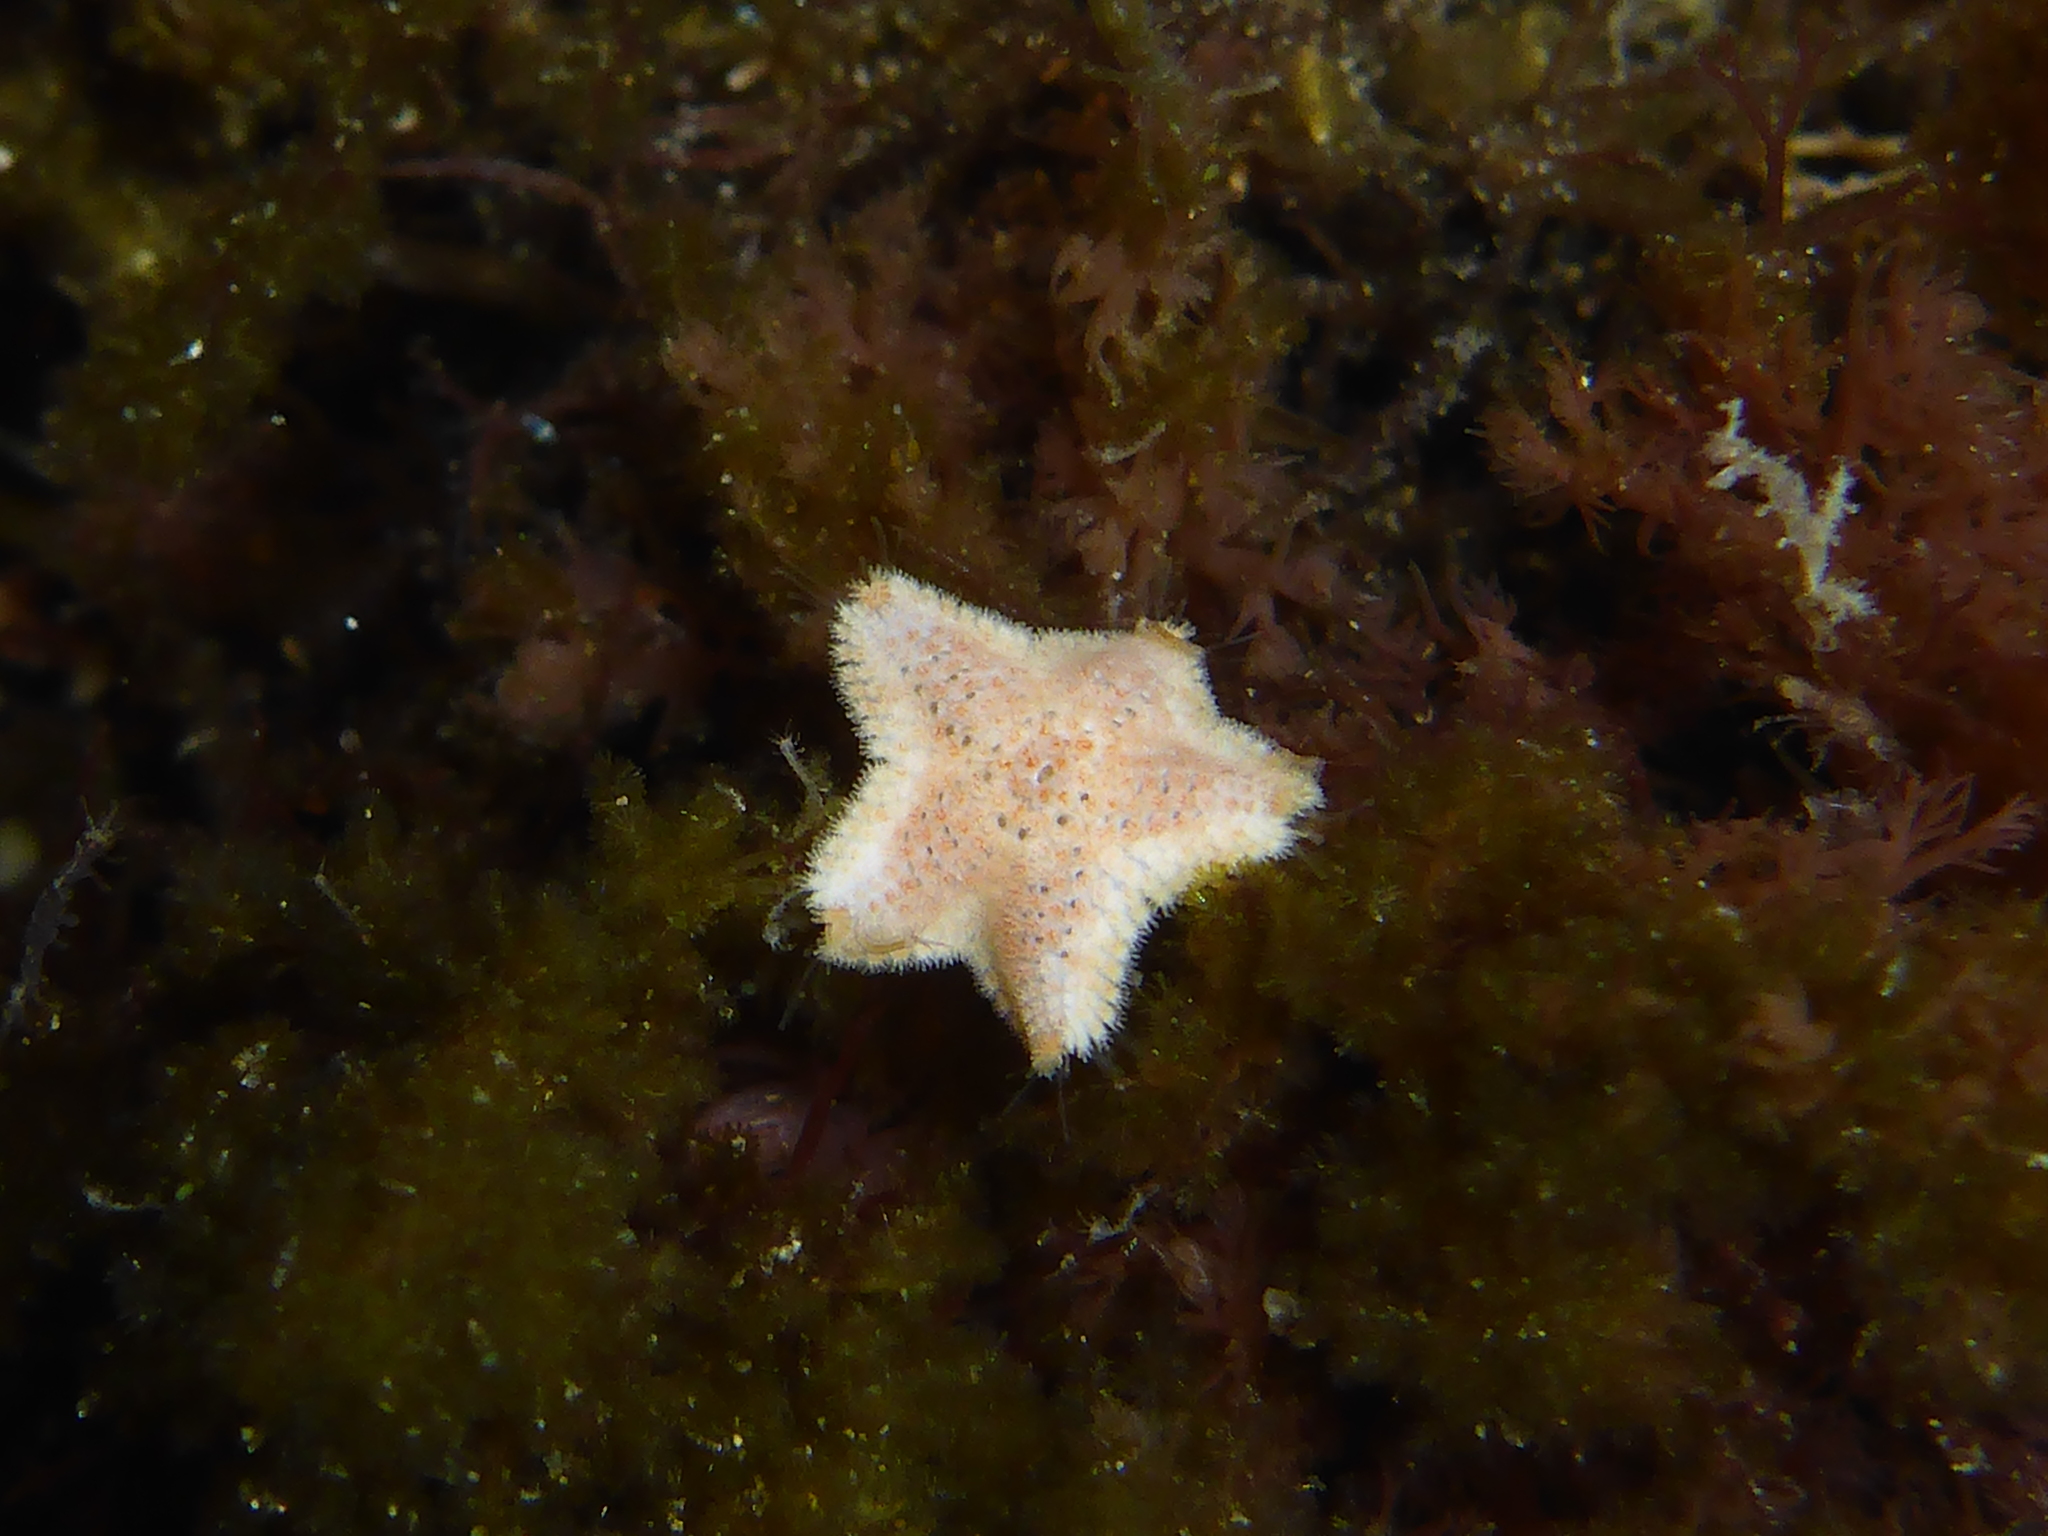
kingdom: Animalia
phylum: Echinodermata
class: Asteroidea
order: Valvatida
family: Asterinidae
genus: Patiria
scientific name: Patiria miniata
